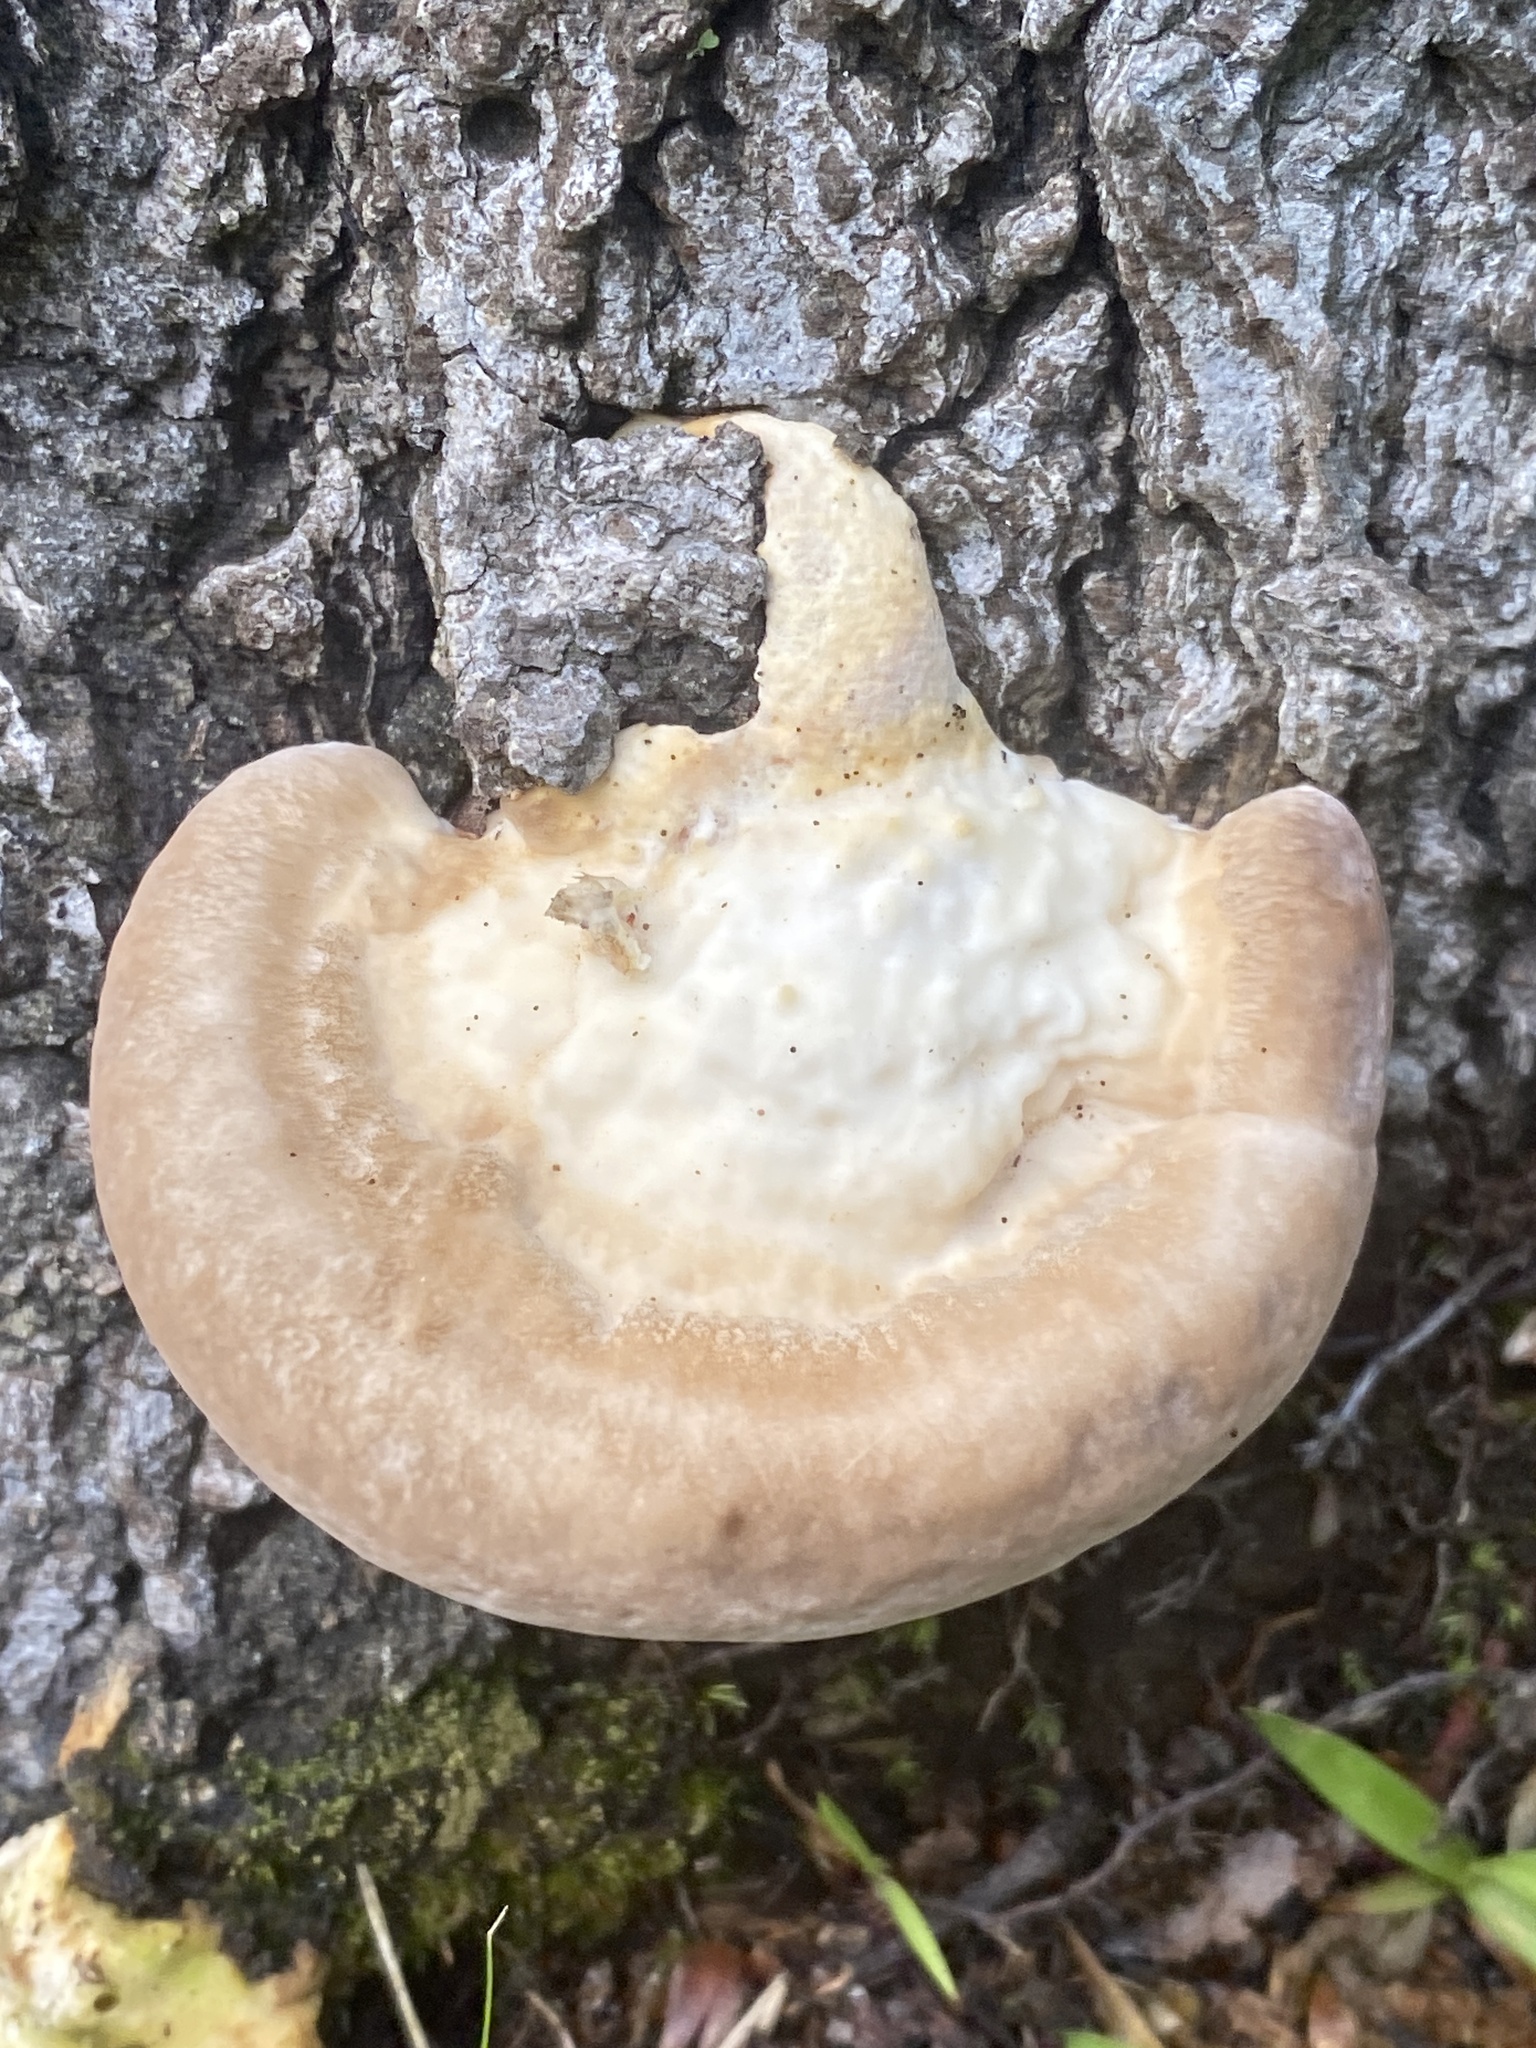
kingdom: Fungi
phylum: Basidiomycota
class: Agaricomycetes
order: Polyporales
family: Polyporaceae
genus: Trametes
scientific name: Trametes lactinea
